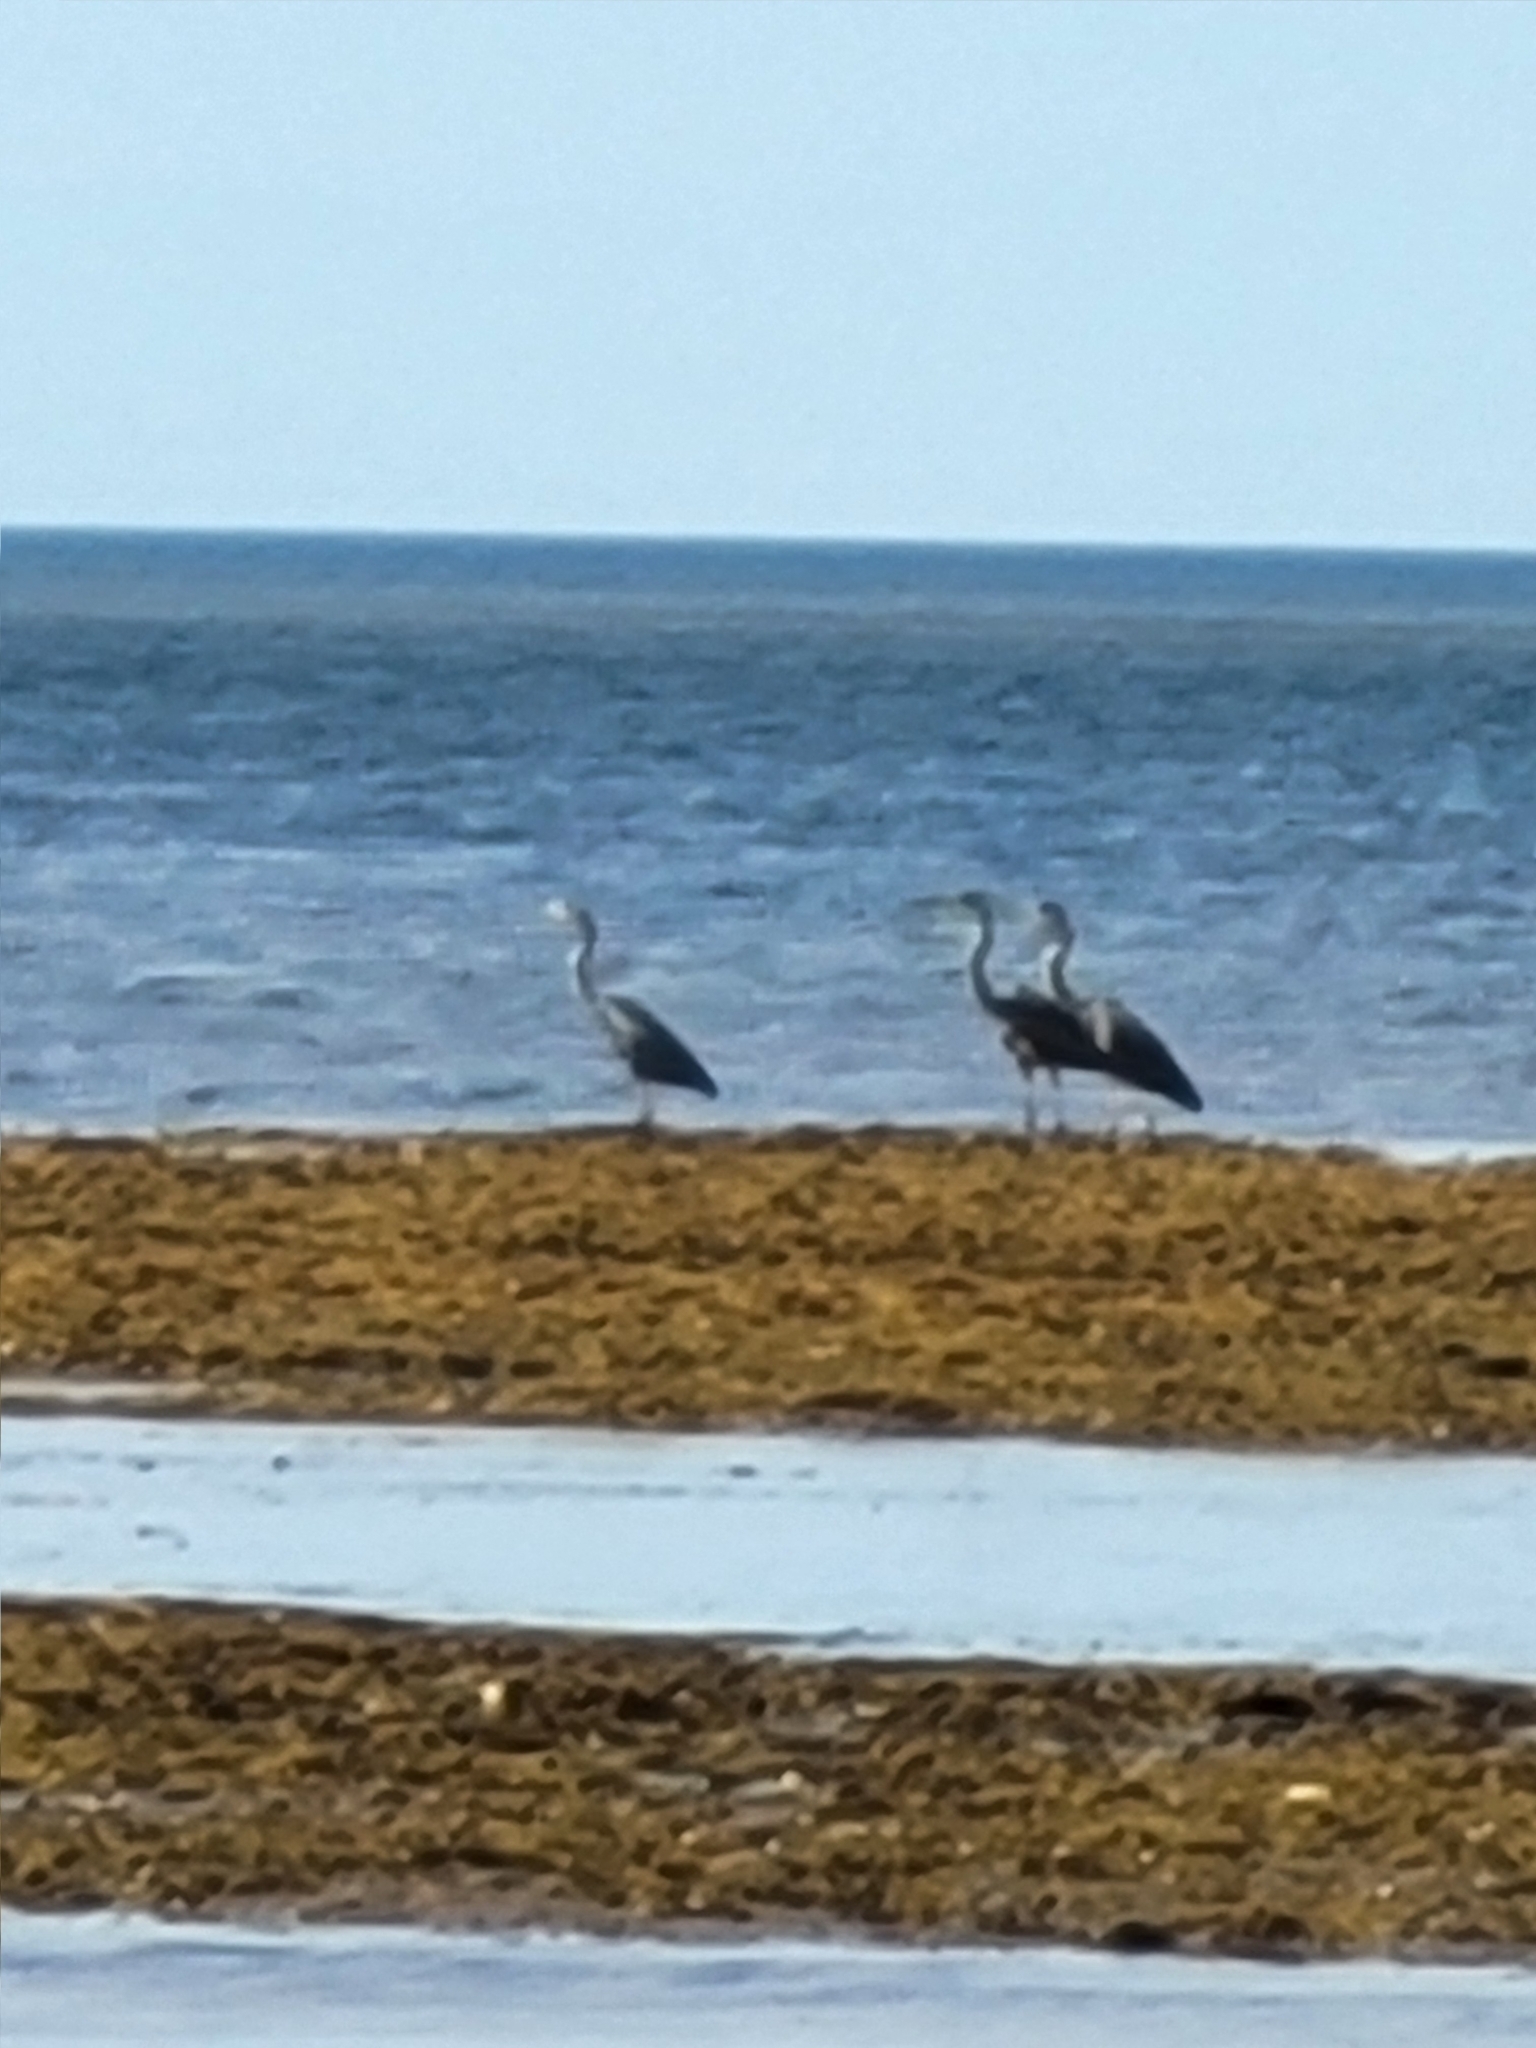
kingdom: Animalia
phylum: Chordata
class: Aves
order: Pelecaniformes
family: Ardeidae
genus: Ardea
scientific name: Ardea herodias
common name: Great blue heron
